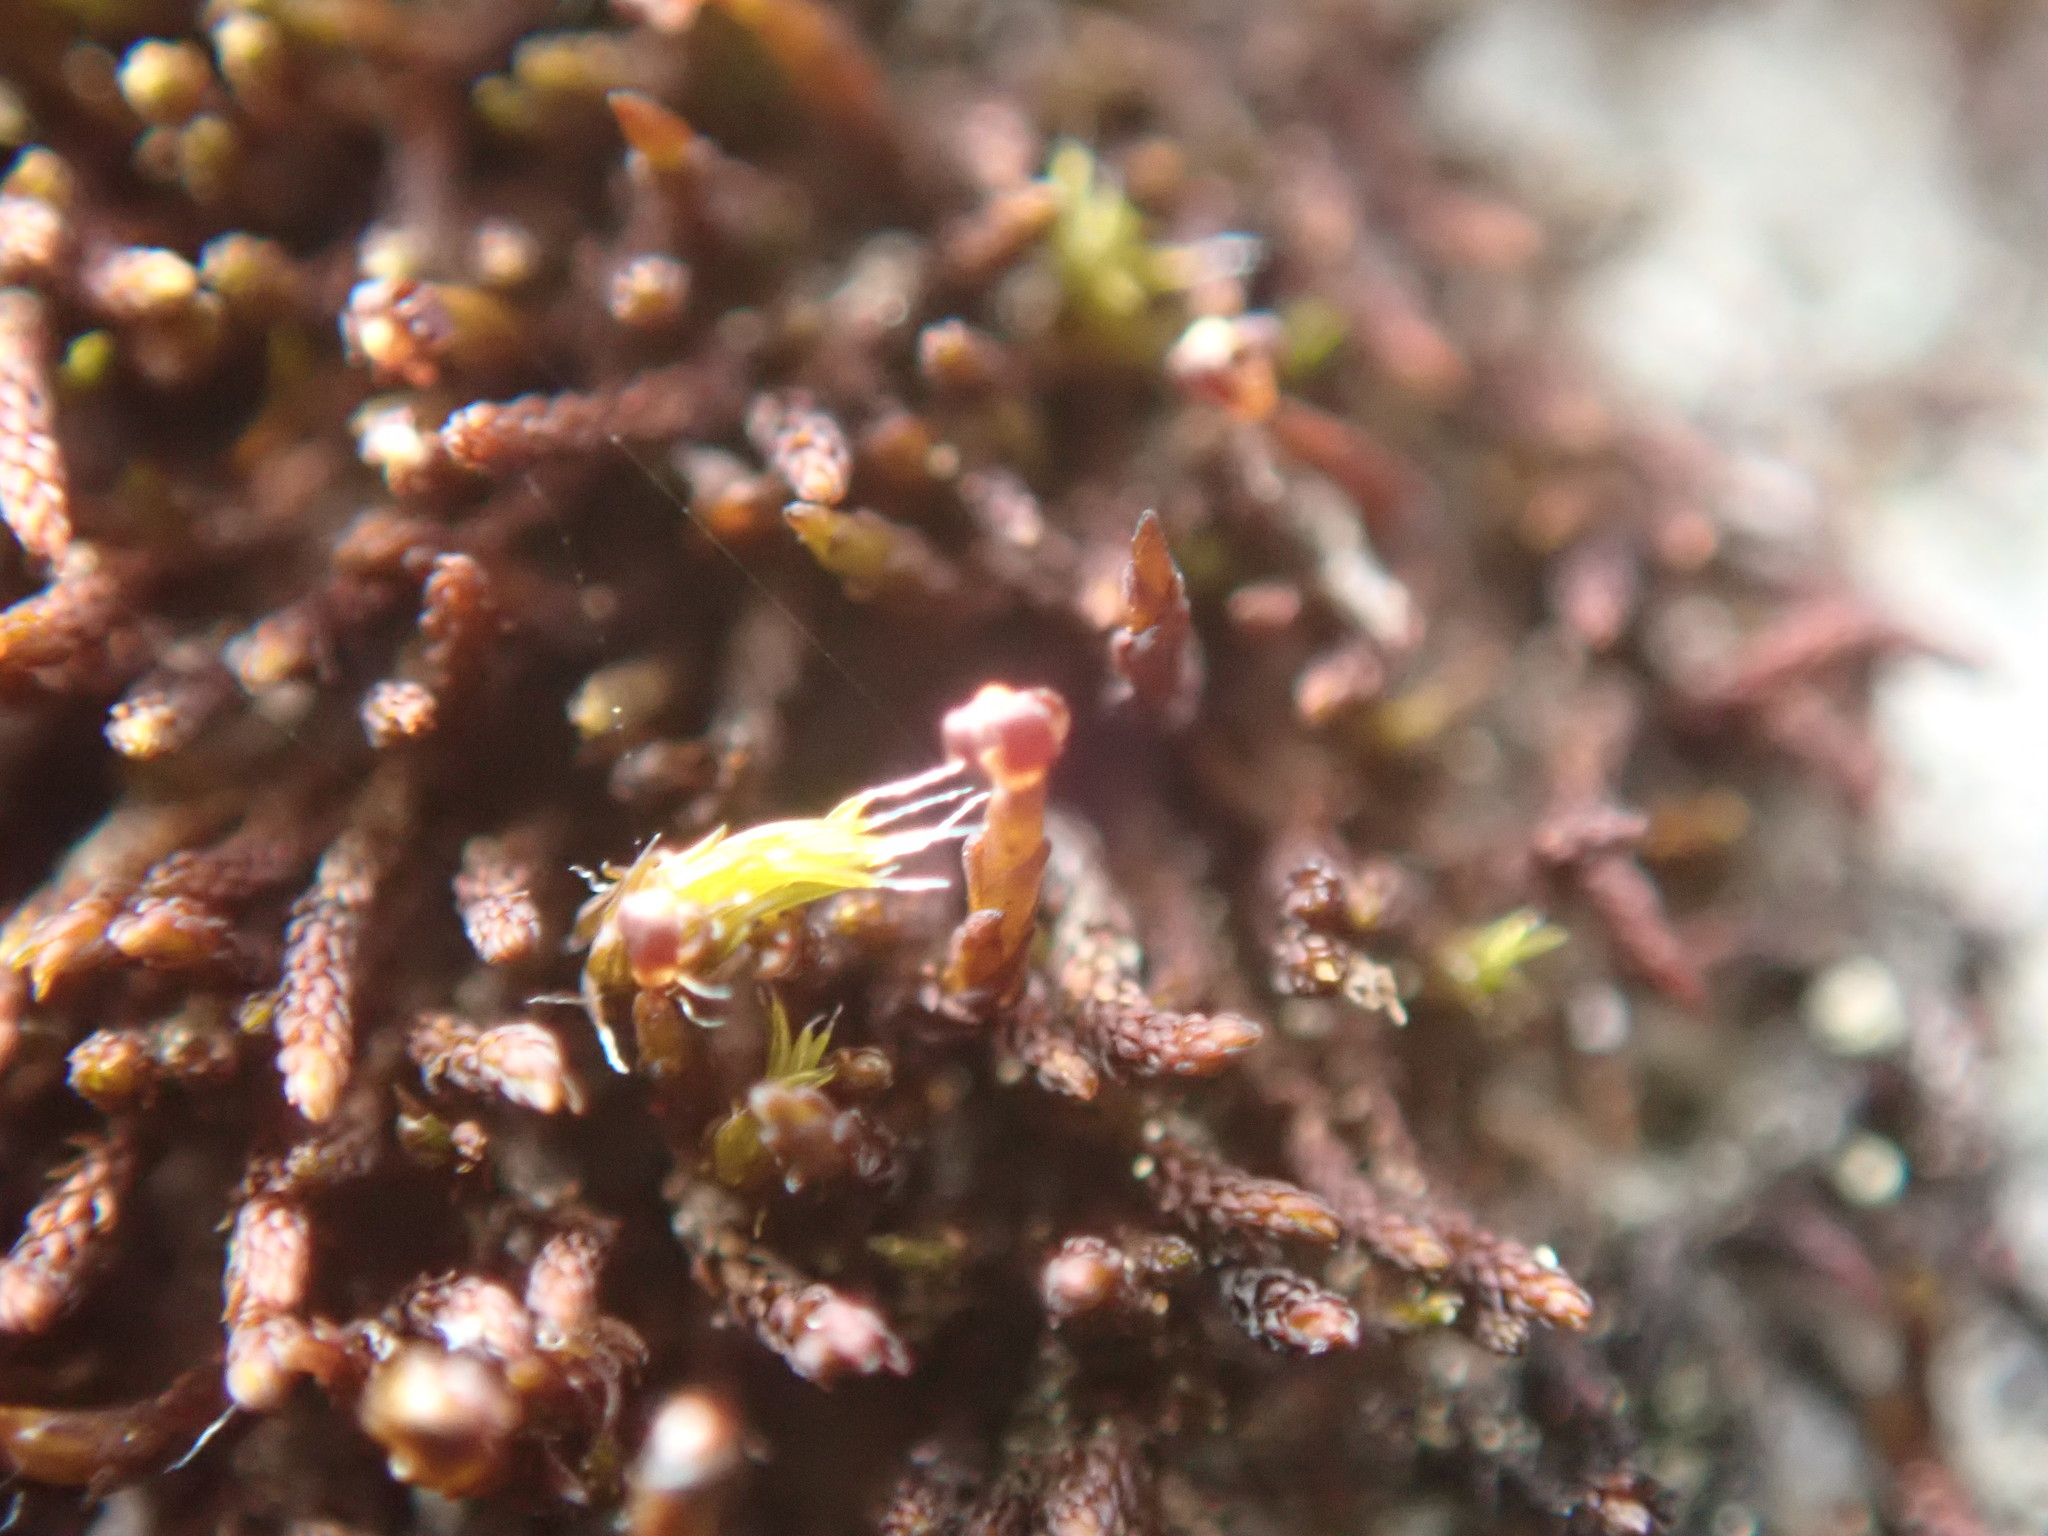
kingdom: Plantae
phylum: Bryophyta
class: Andreaeopsida
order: Andreaeales
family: Andreaeaceae
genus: Andreaea
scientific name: Andreaea rupestris
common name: Black rock moss
